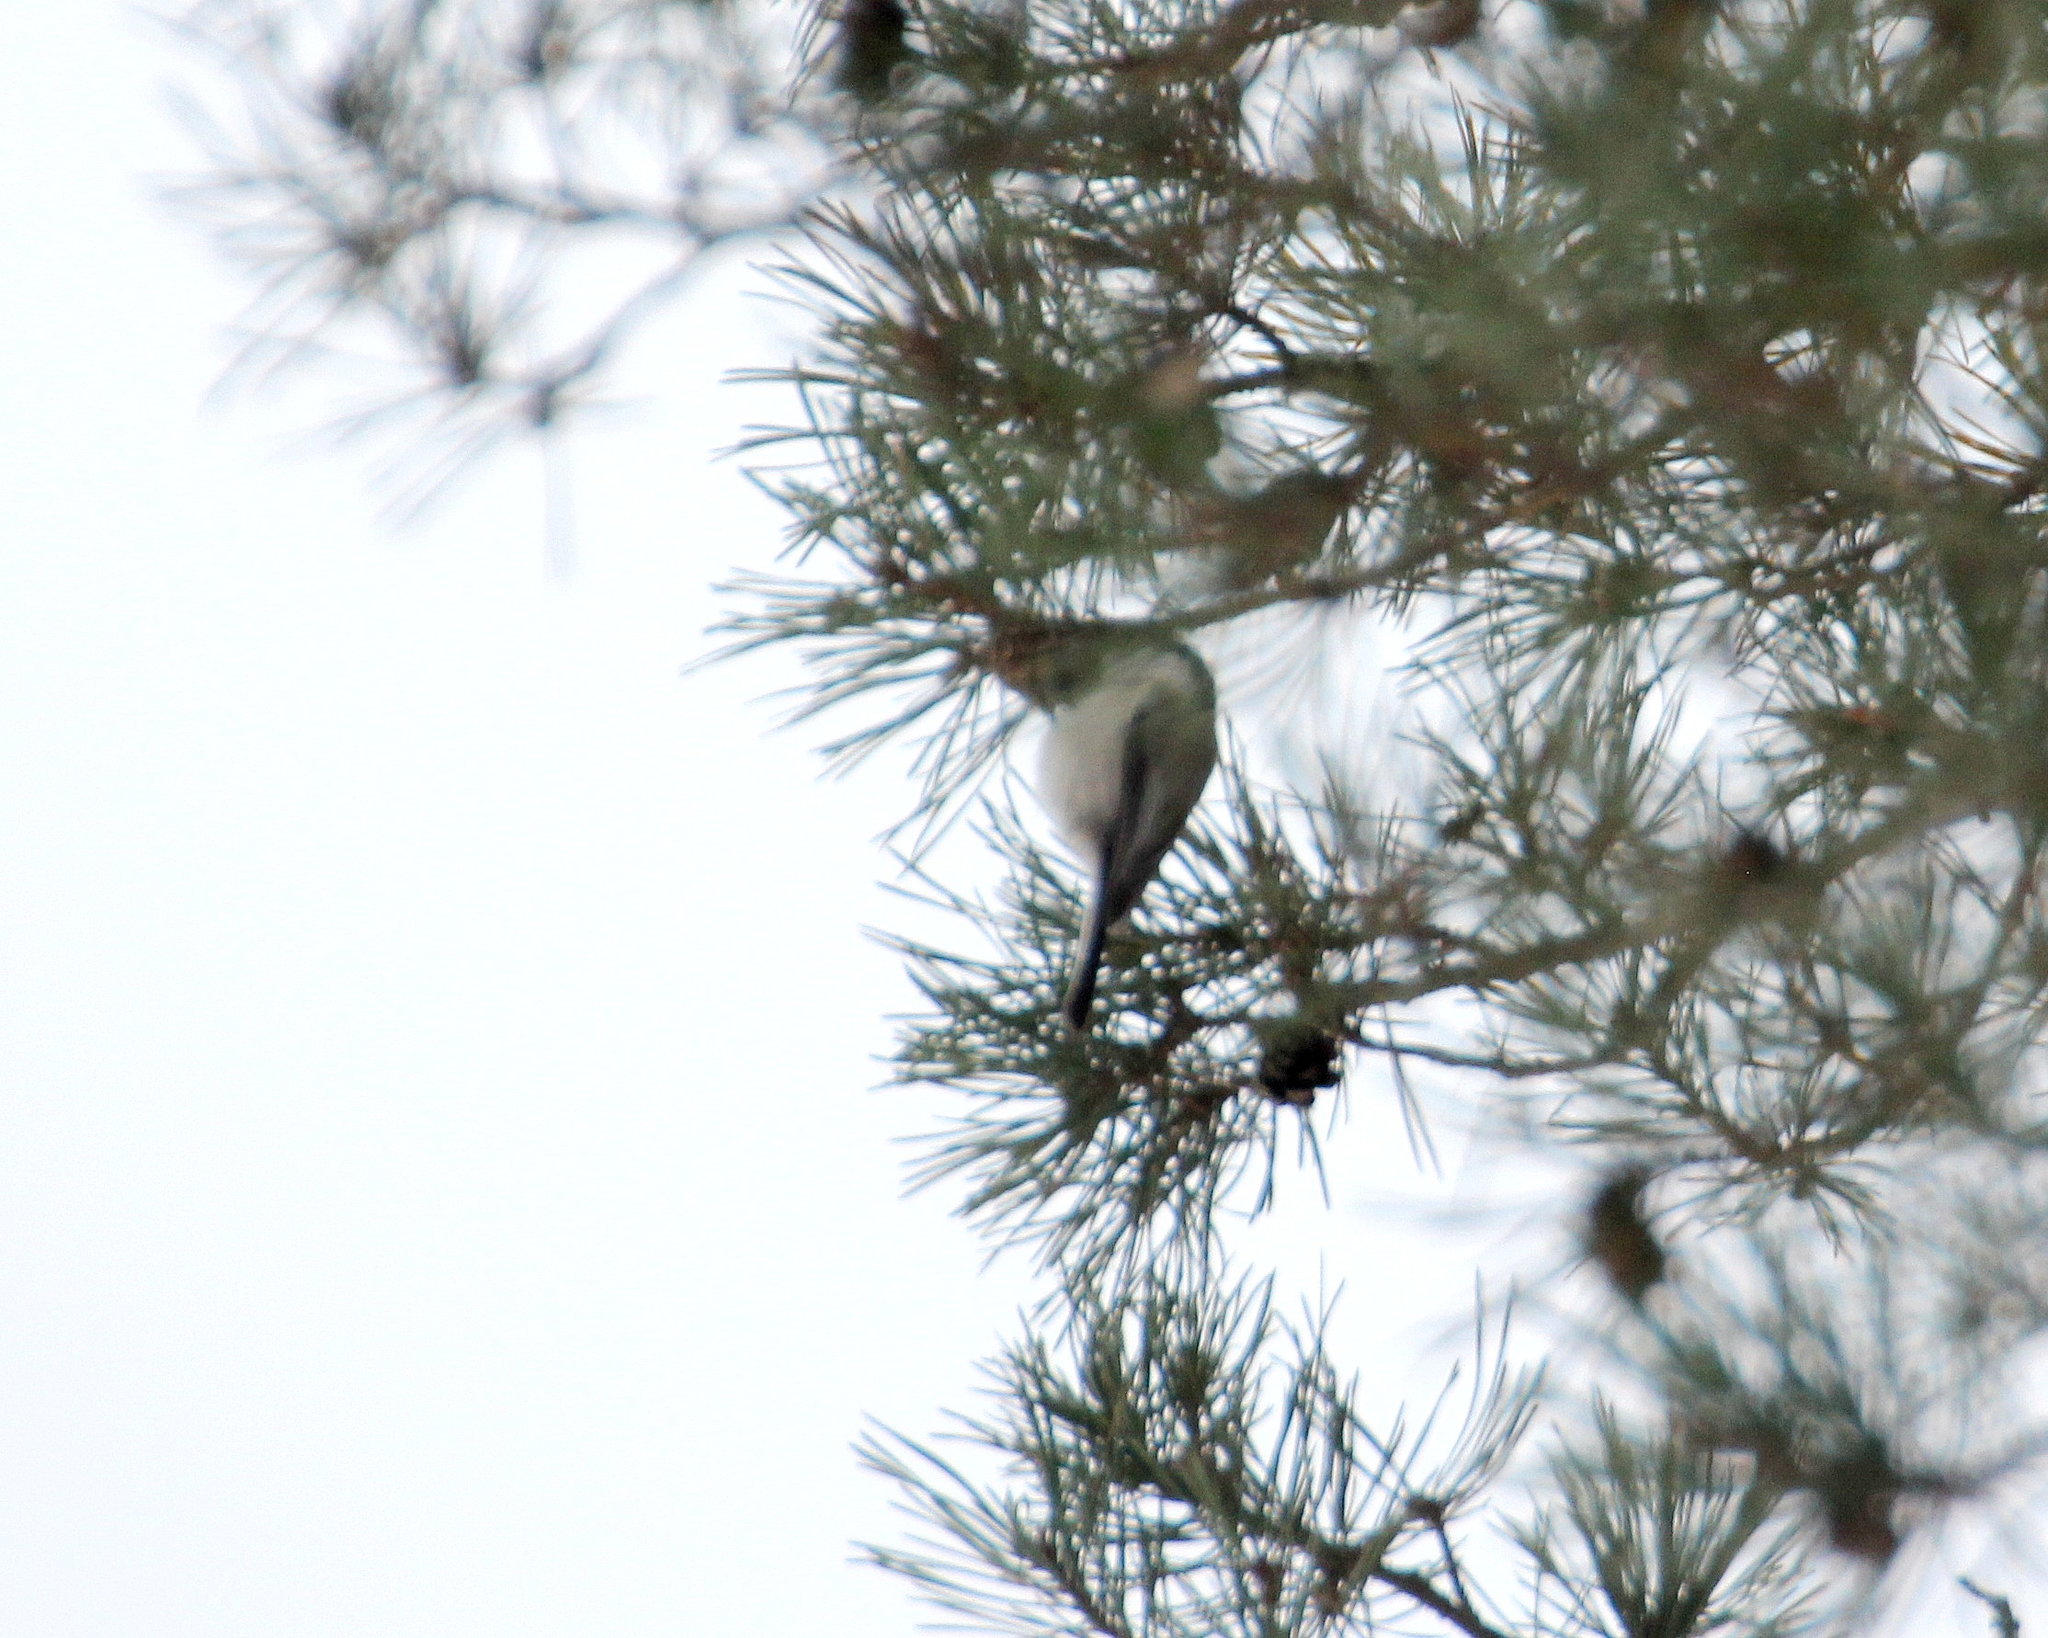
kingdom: Animalia
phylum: Chordata
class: Aves
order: Passeriformes
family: Paridae
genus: Poecile
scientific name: Poecile montanus
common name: Willow tit
